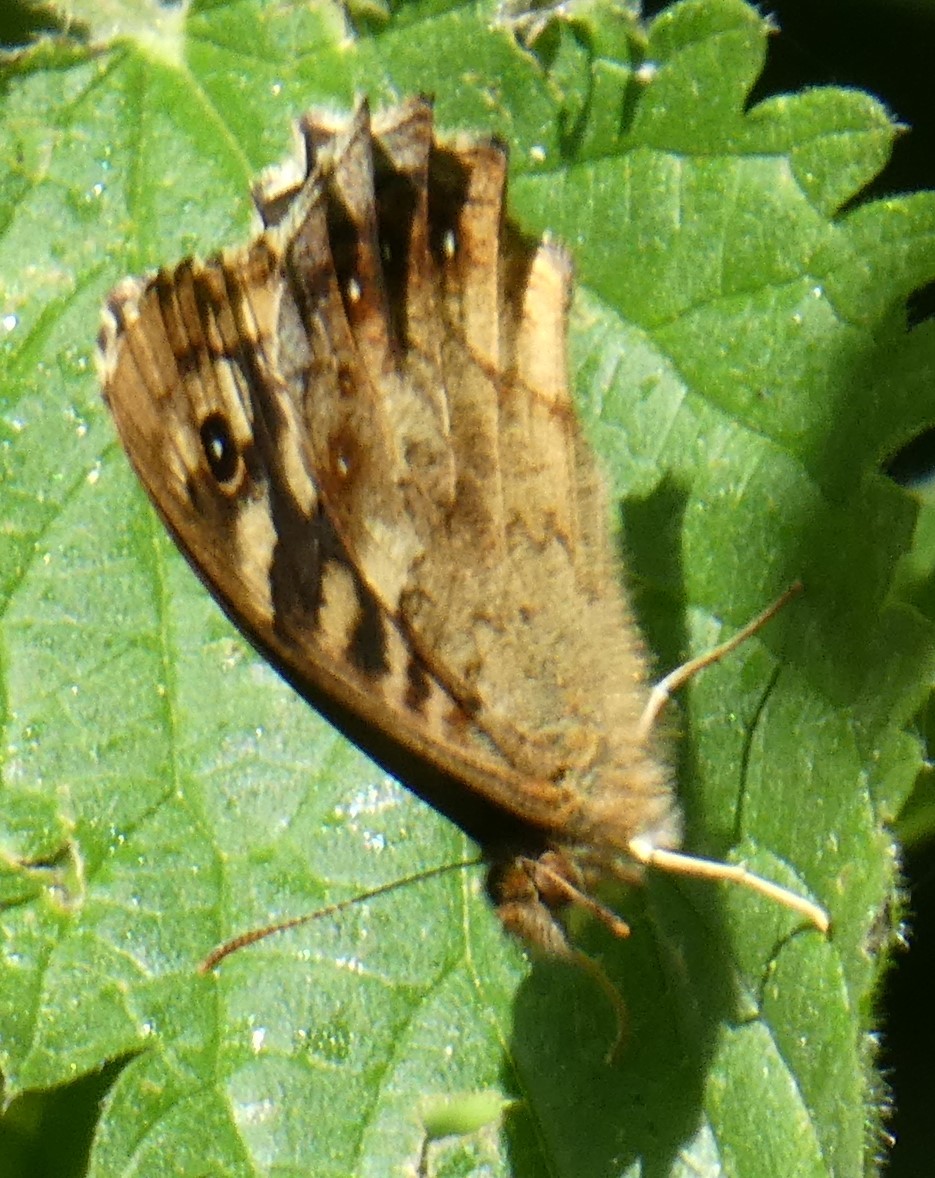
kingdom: Animalia
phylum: Arthropoda
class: Insecta
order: Lepidoptera
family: Nymphalidae
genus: Pararge
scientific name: Pararge aegeria
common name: Speckled wood
